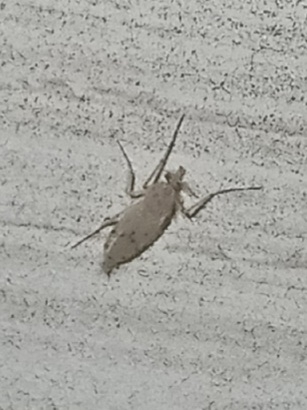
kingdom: Animalia
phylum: Arthropoda
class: Insecta
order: Diptera
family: Chaoboridae
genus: Chaoborus
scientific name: Chaoborus albatus
